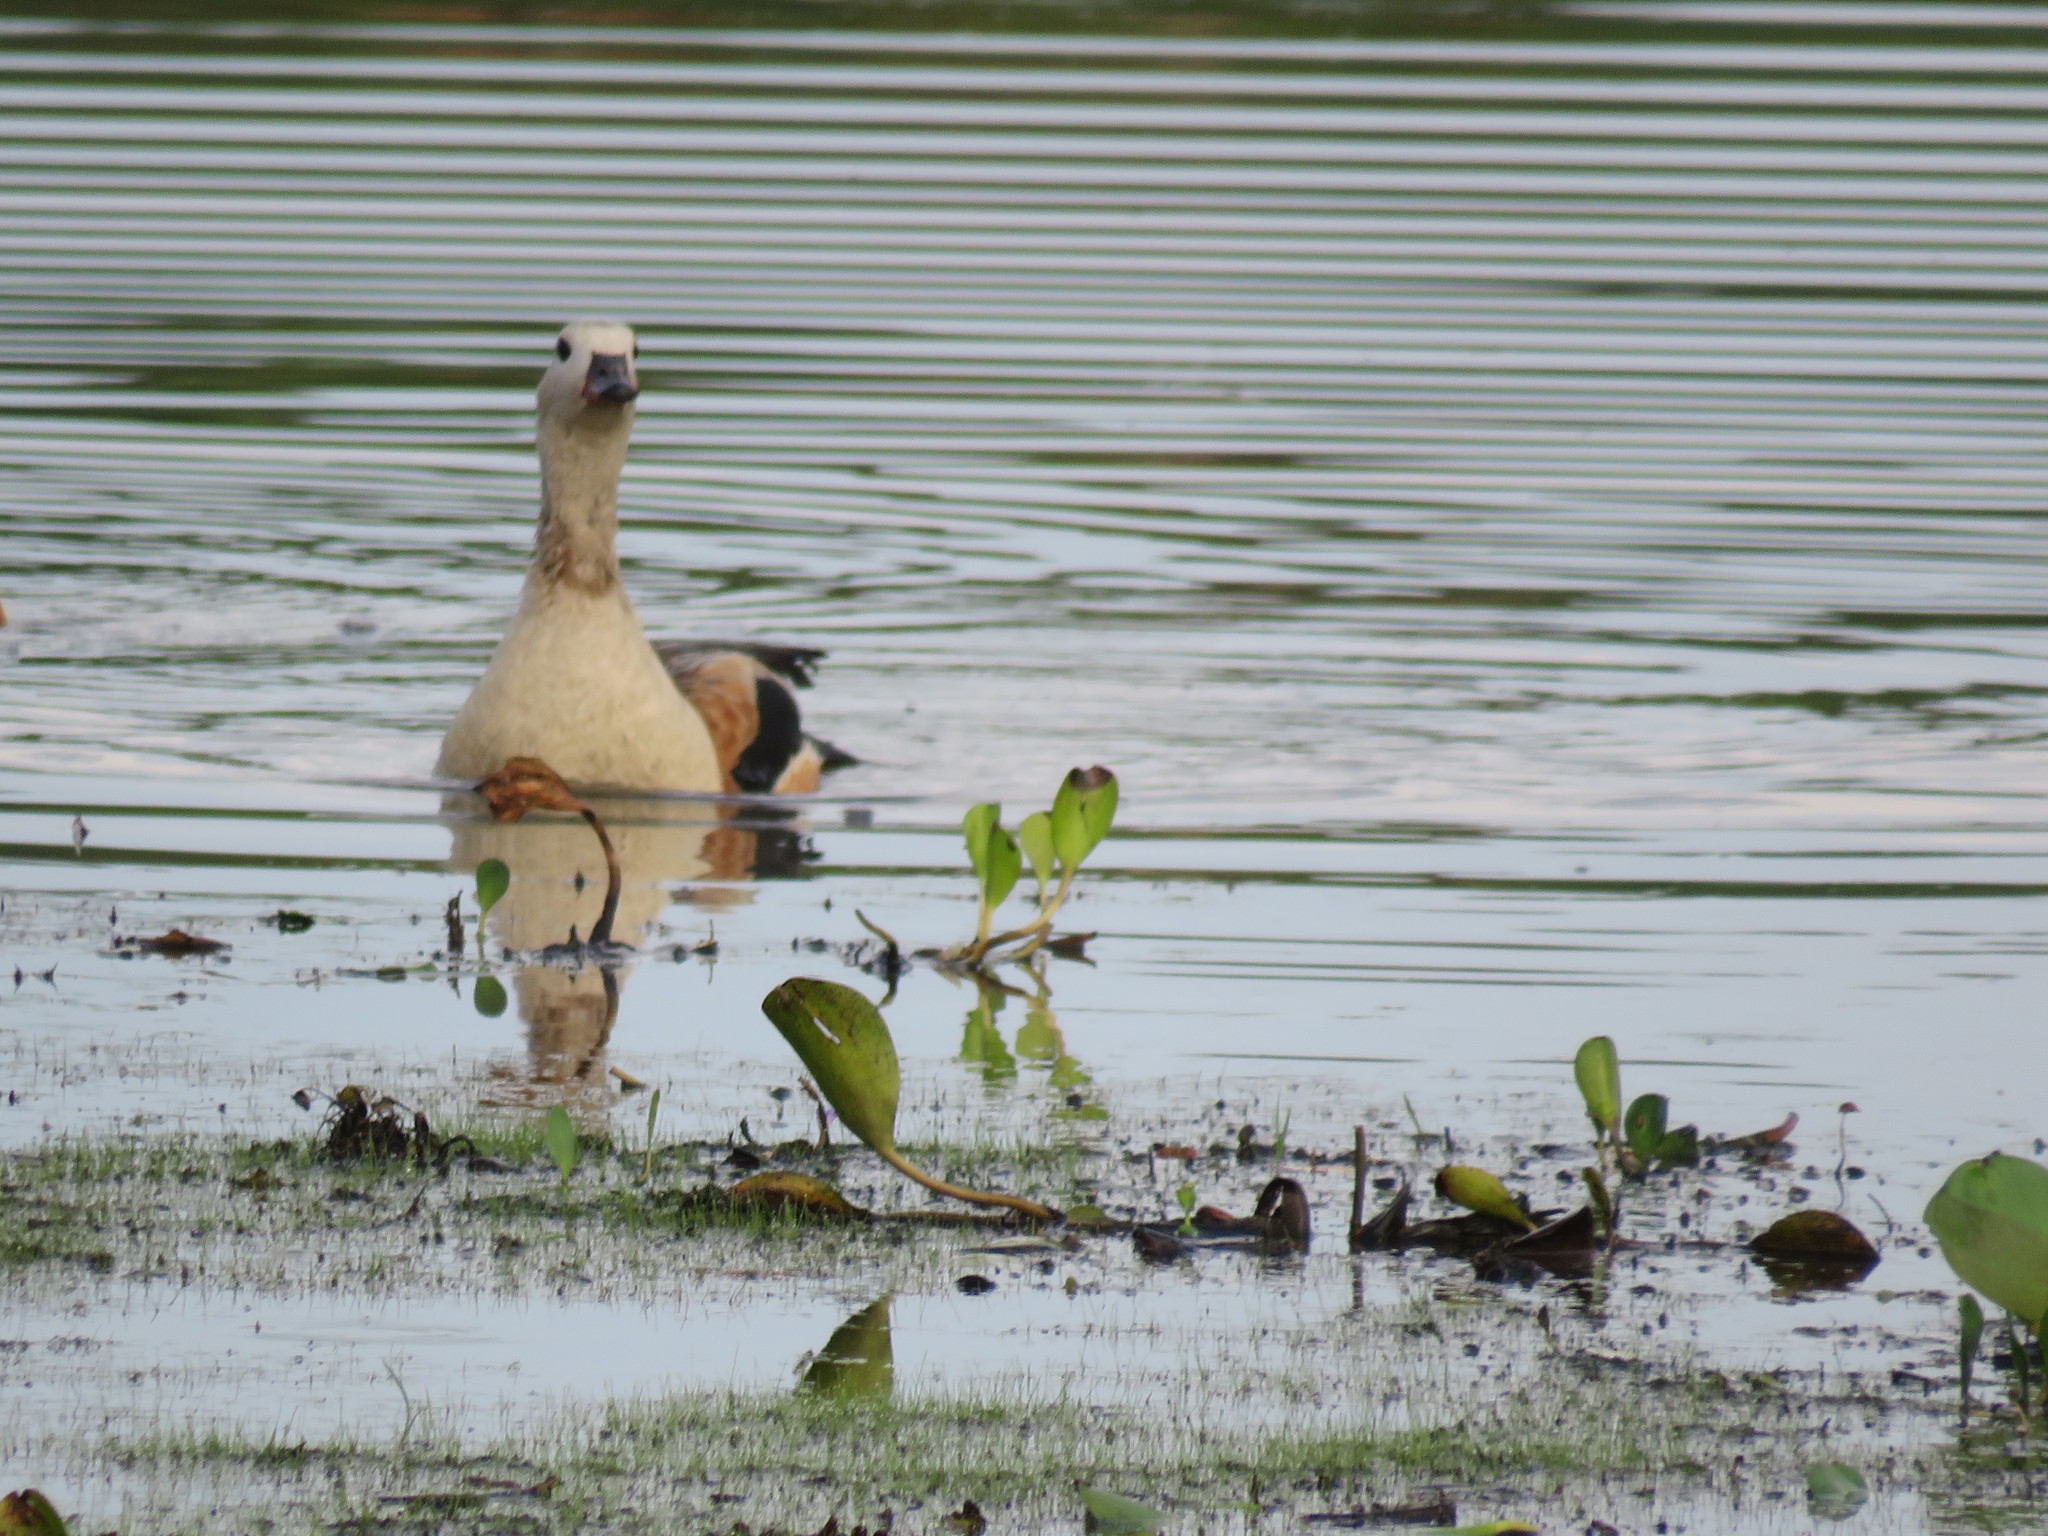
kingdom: Animalia
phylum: Chordata
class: Aves
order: Anseriformes
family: Anatidae
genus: Oressochen
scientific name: Oressochen jubatus
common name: Orinoco goose
